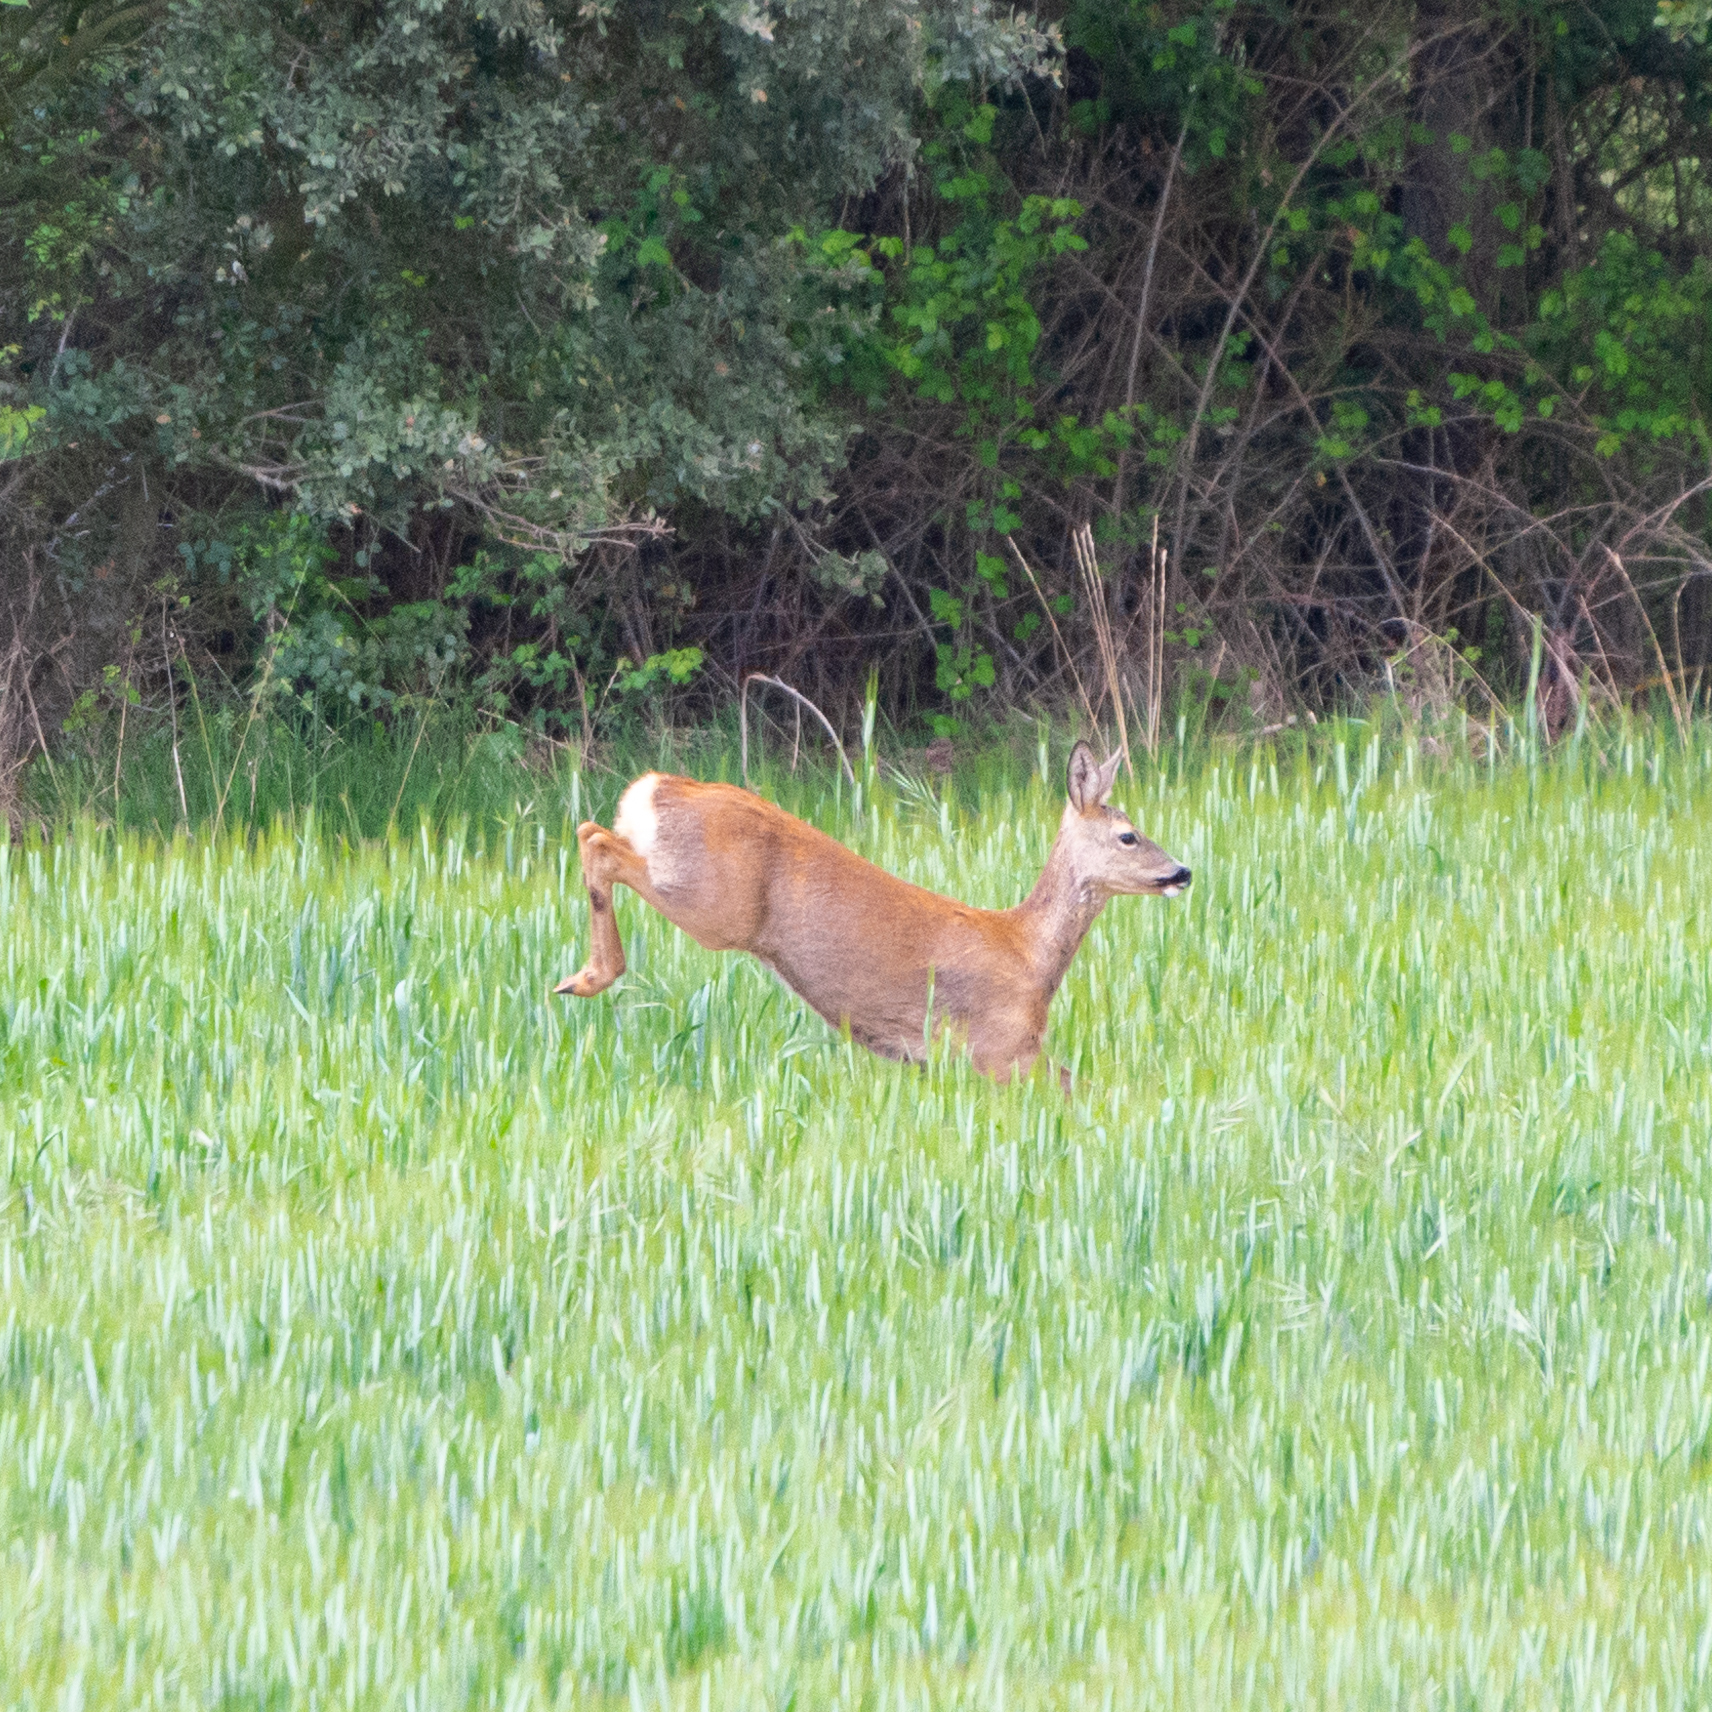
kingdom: Animalia
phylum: Chordata
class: Mammalia
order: Artiodactyla
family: Cervidae
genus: Capreolus
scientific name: Capreolus capreolus
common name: Western roe deer
